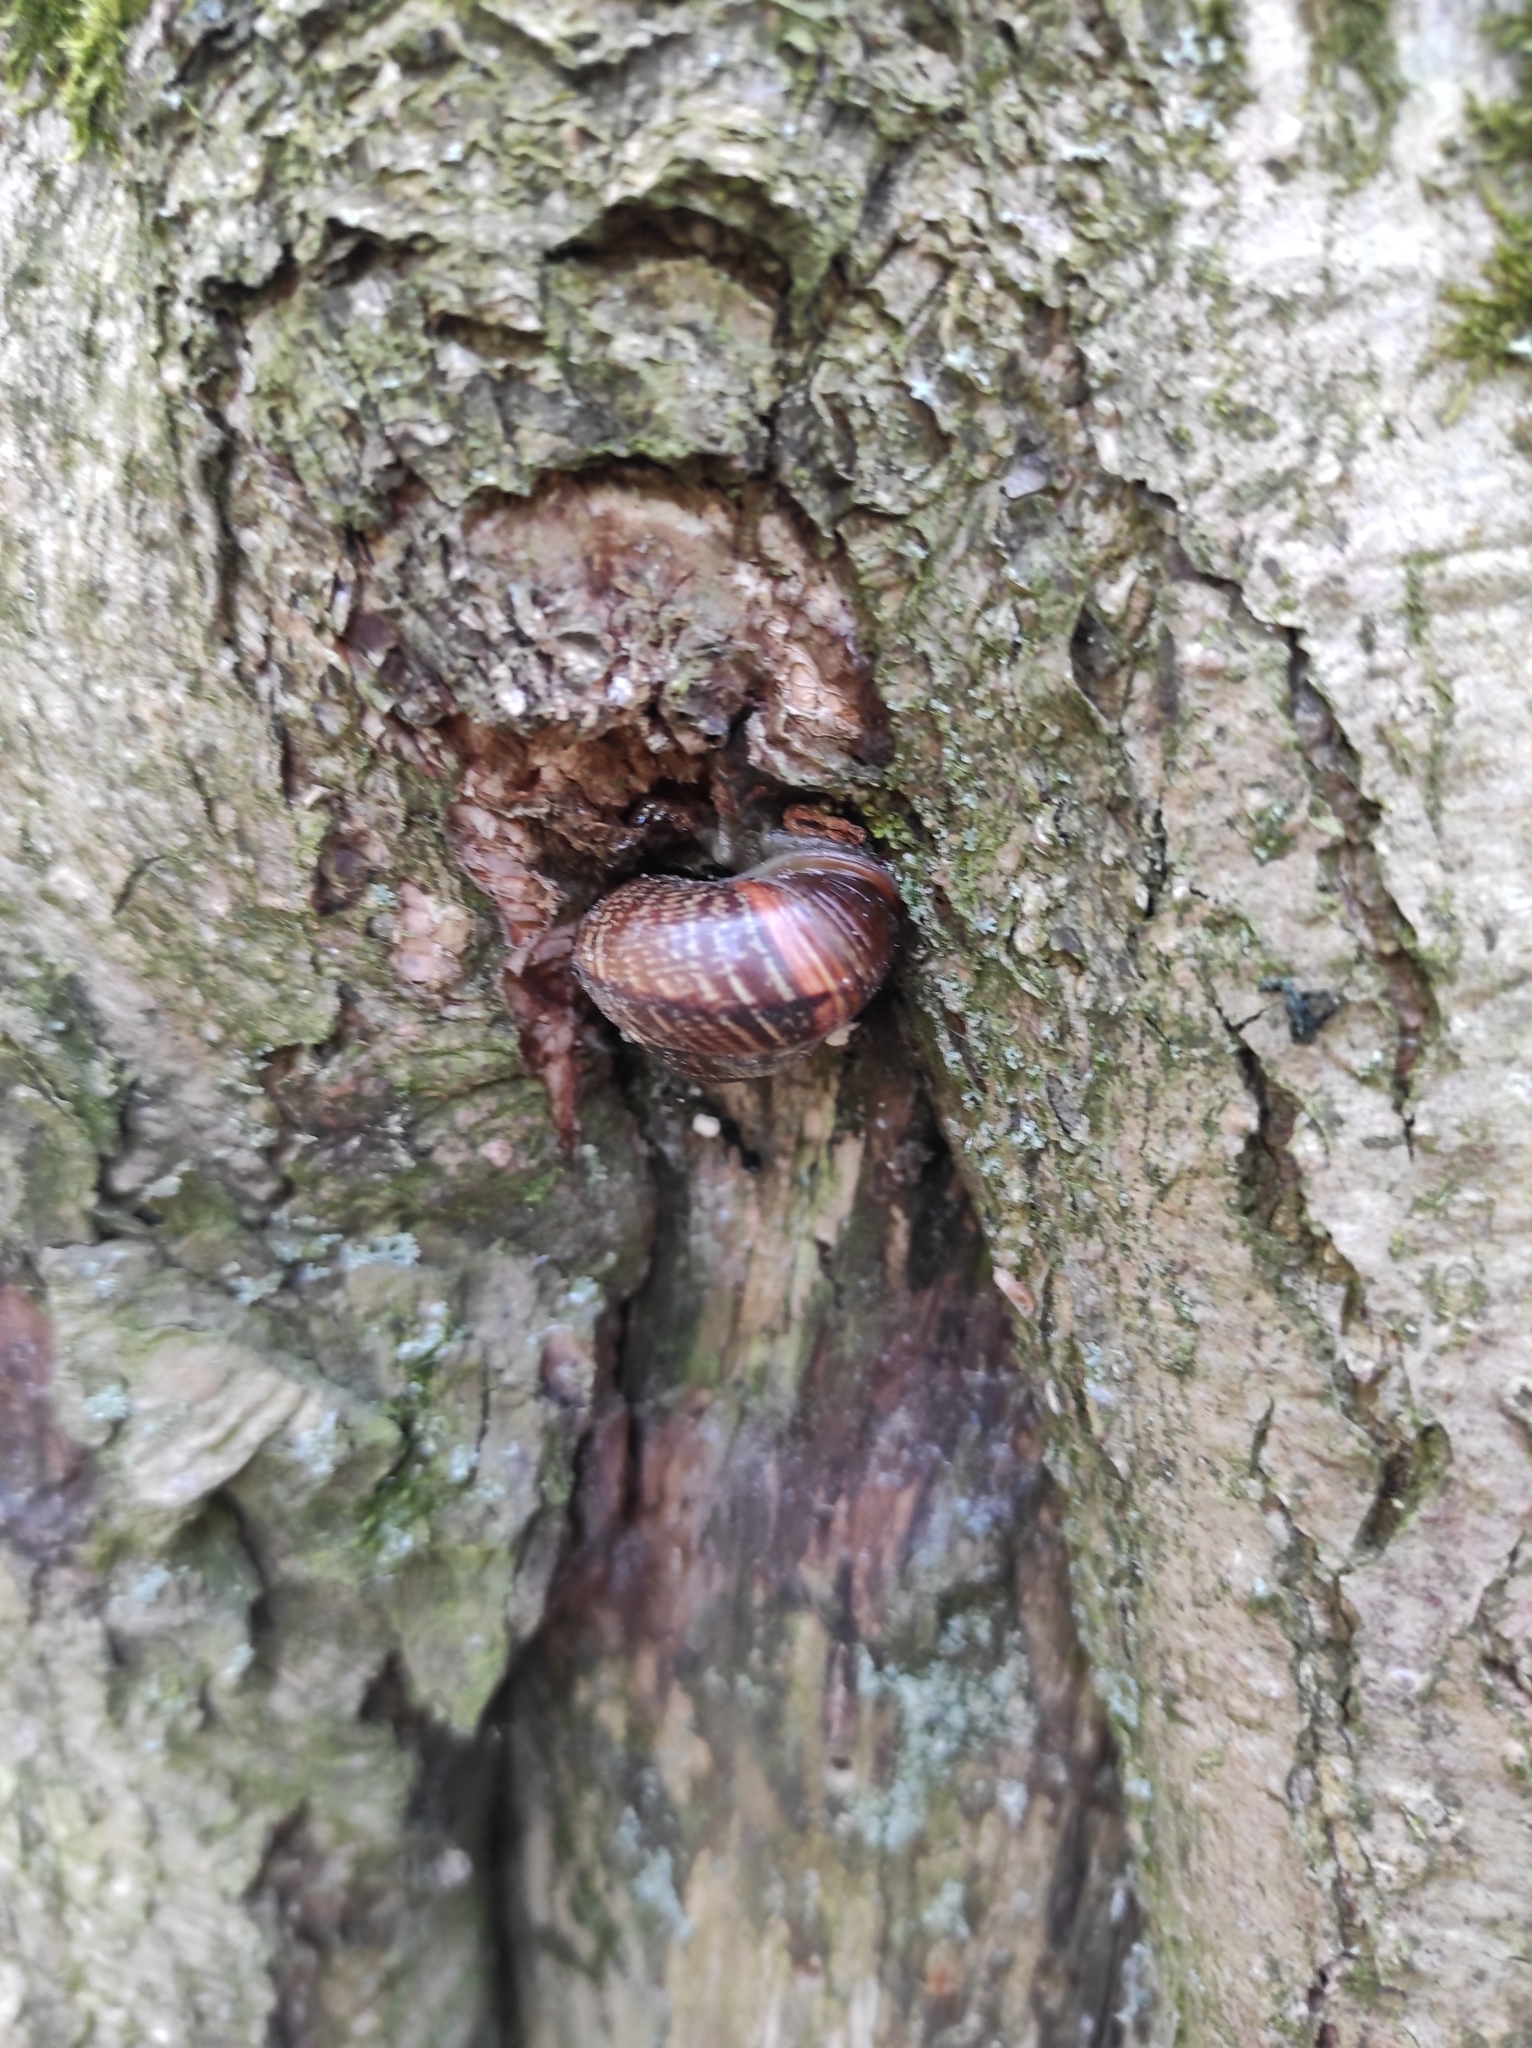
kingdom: Animalia
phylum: Mollusca
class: Gastropoda
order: Stylommatophora
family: Helicidae
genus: Arianta
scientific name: Arianta arbustorum
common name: Copse snail
